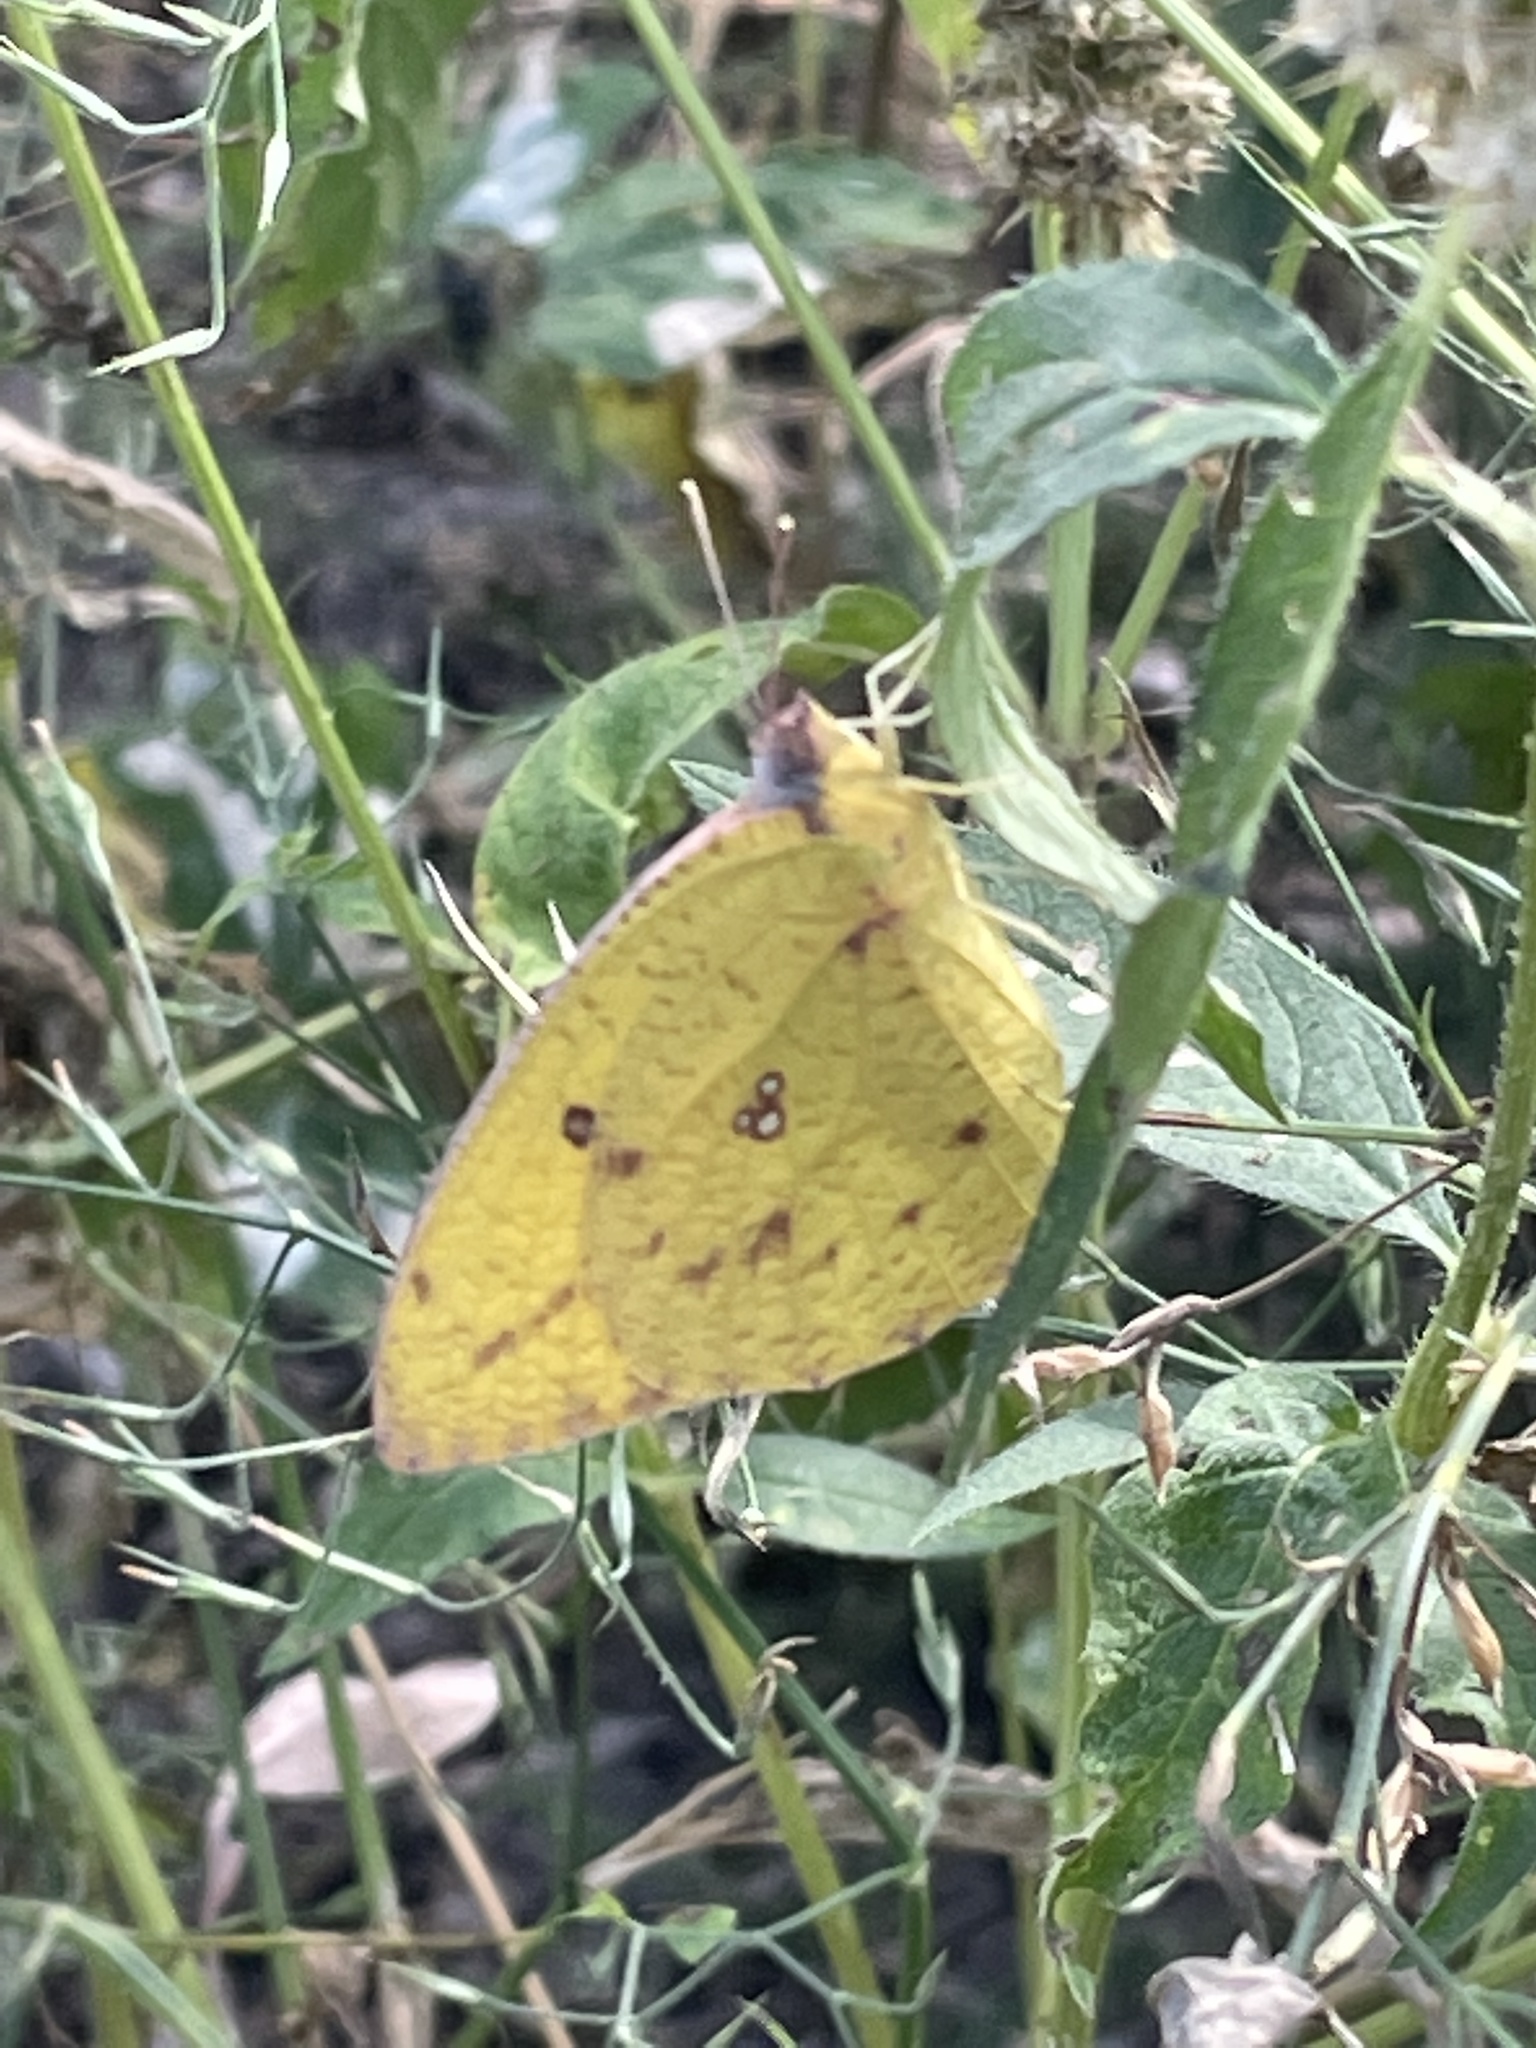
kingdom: Animalia
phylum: Arthropoda
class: Insecta
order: Lepidoptera
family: Pieridae
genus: Catopsilia
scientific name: Catopsilia florella
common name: African migrant
